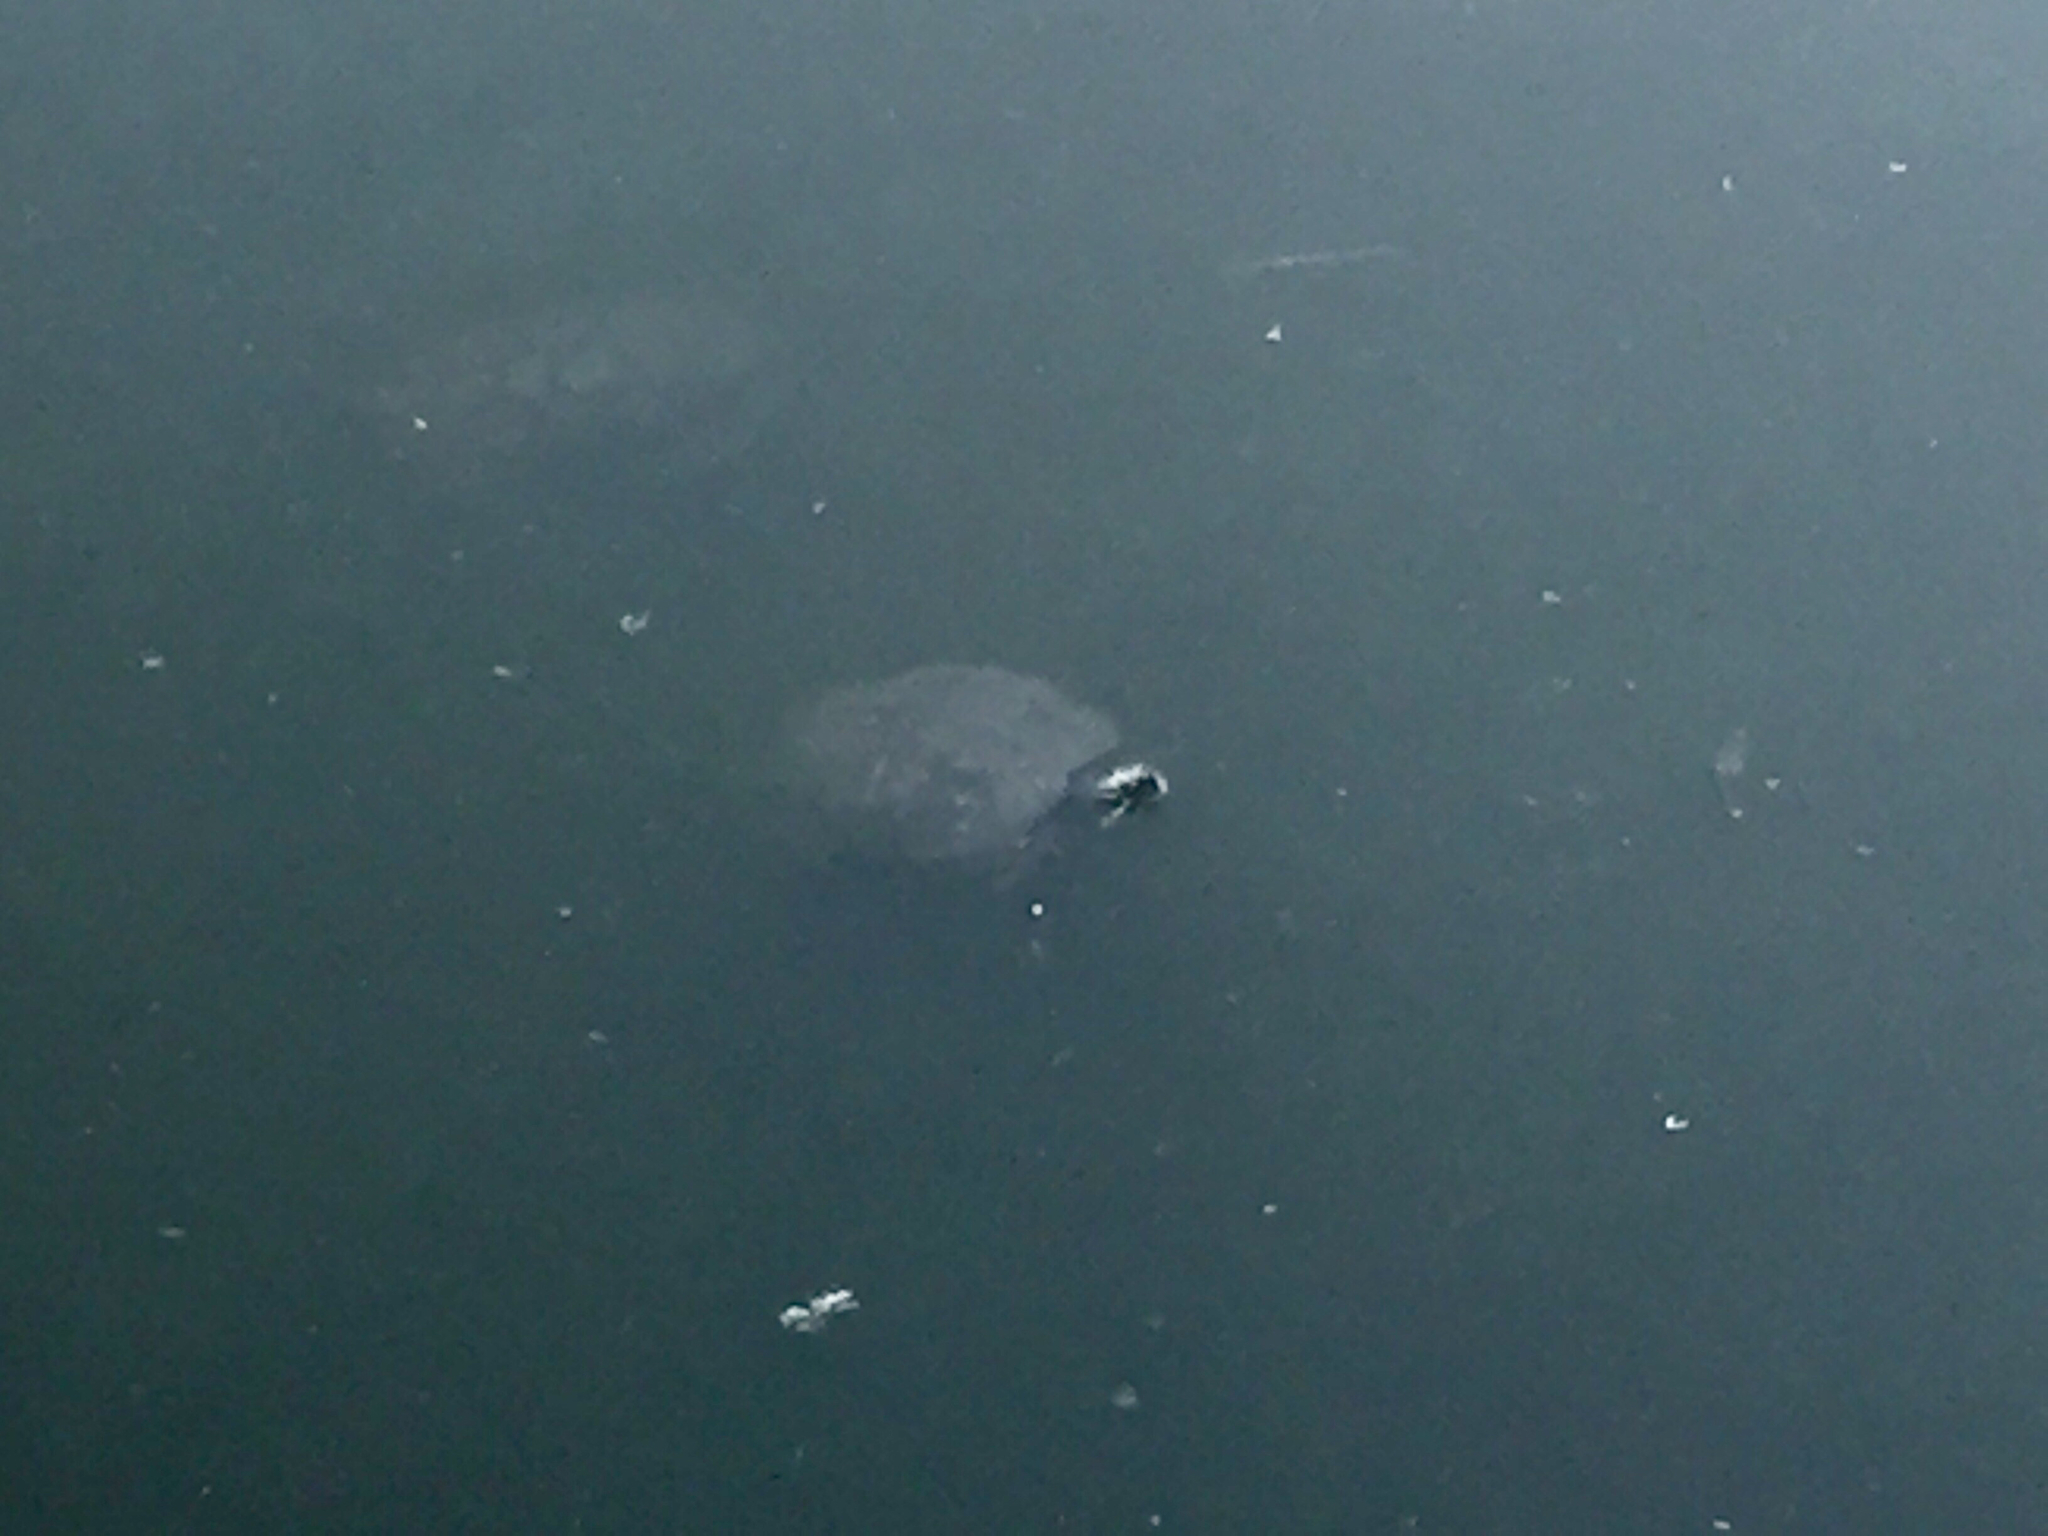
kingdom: Animalia
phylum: Chordata
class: Testudines
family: Emydidae
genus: Trachemys
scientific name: Trachemys scripta
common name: Slider
